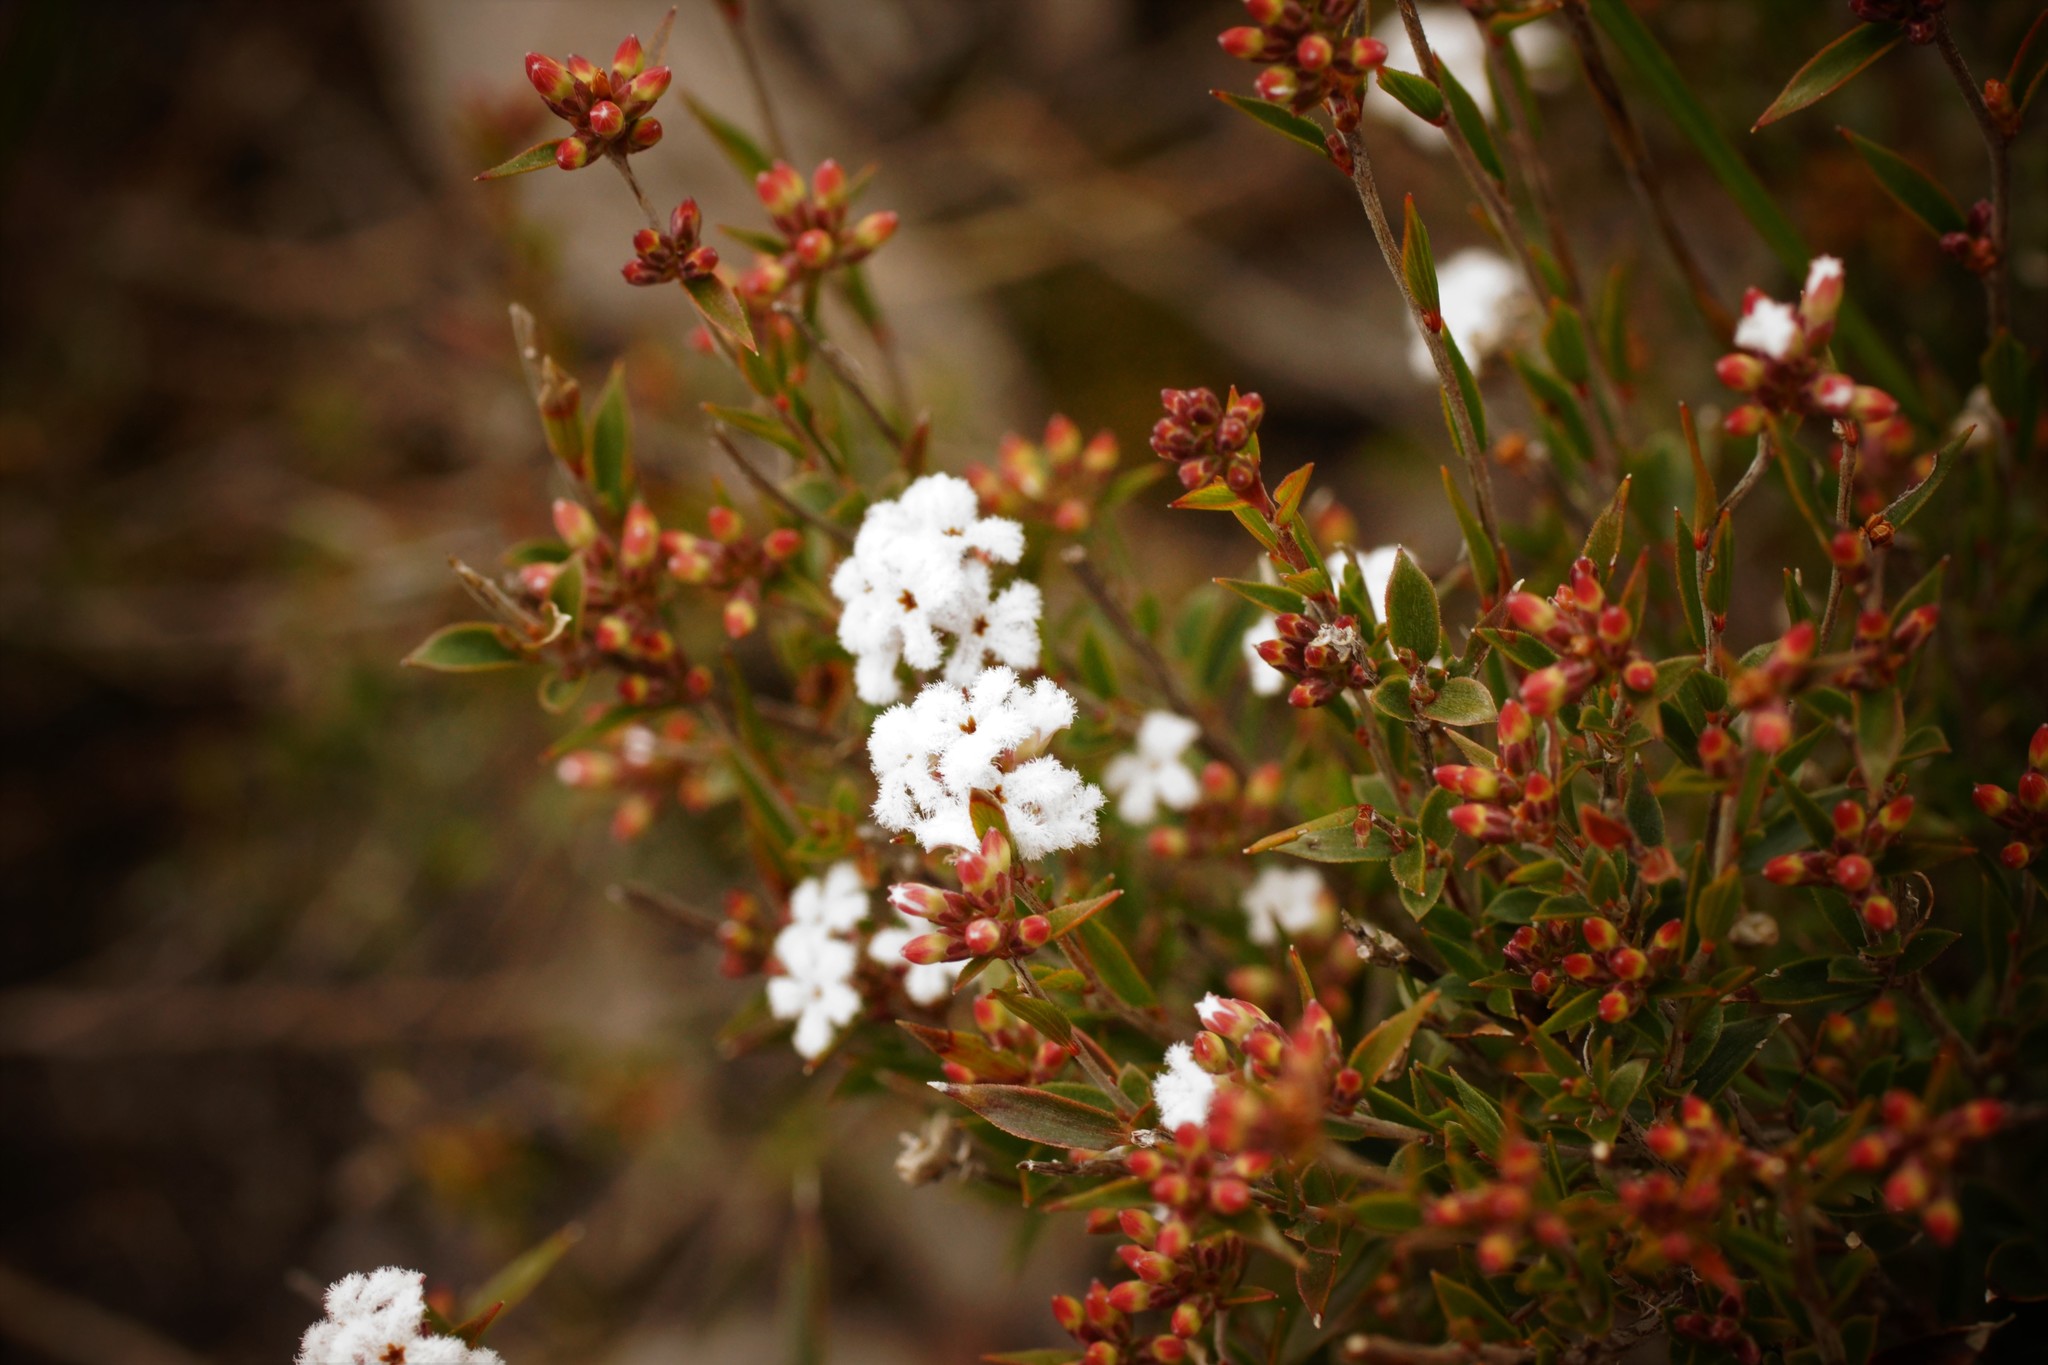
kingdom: Plantae
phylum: Tracheophyta
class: Magnoliopsida
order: Ericales
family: Ericaceae
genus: Leucopogon
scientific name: Leucopogon virgatus
